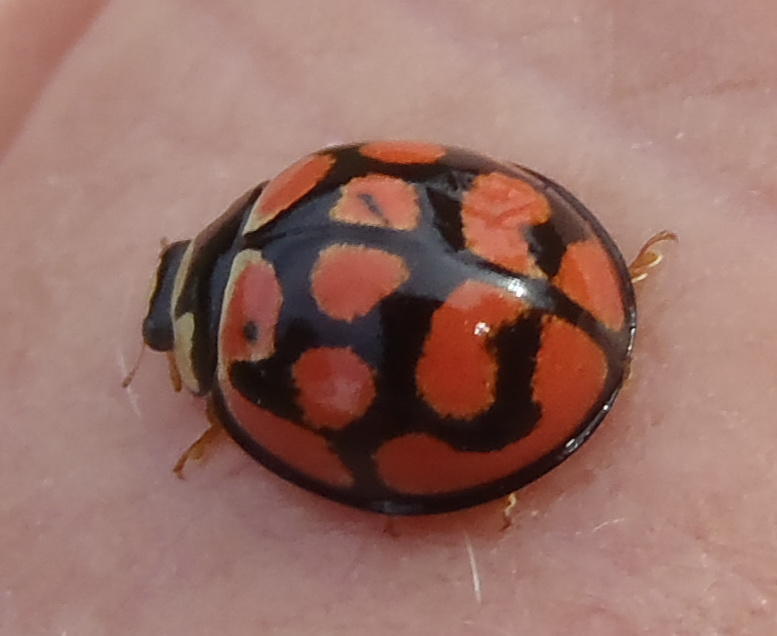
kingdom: Animalia
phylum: Arthropoda
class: Insecta
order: Coleoptera
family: Coccinellidae
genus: Cheilomenes
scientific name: Cheilomenes lunata
